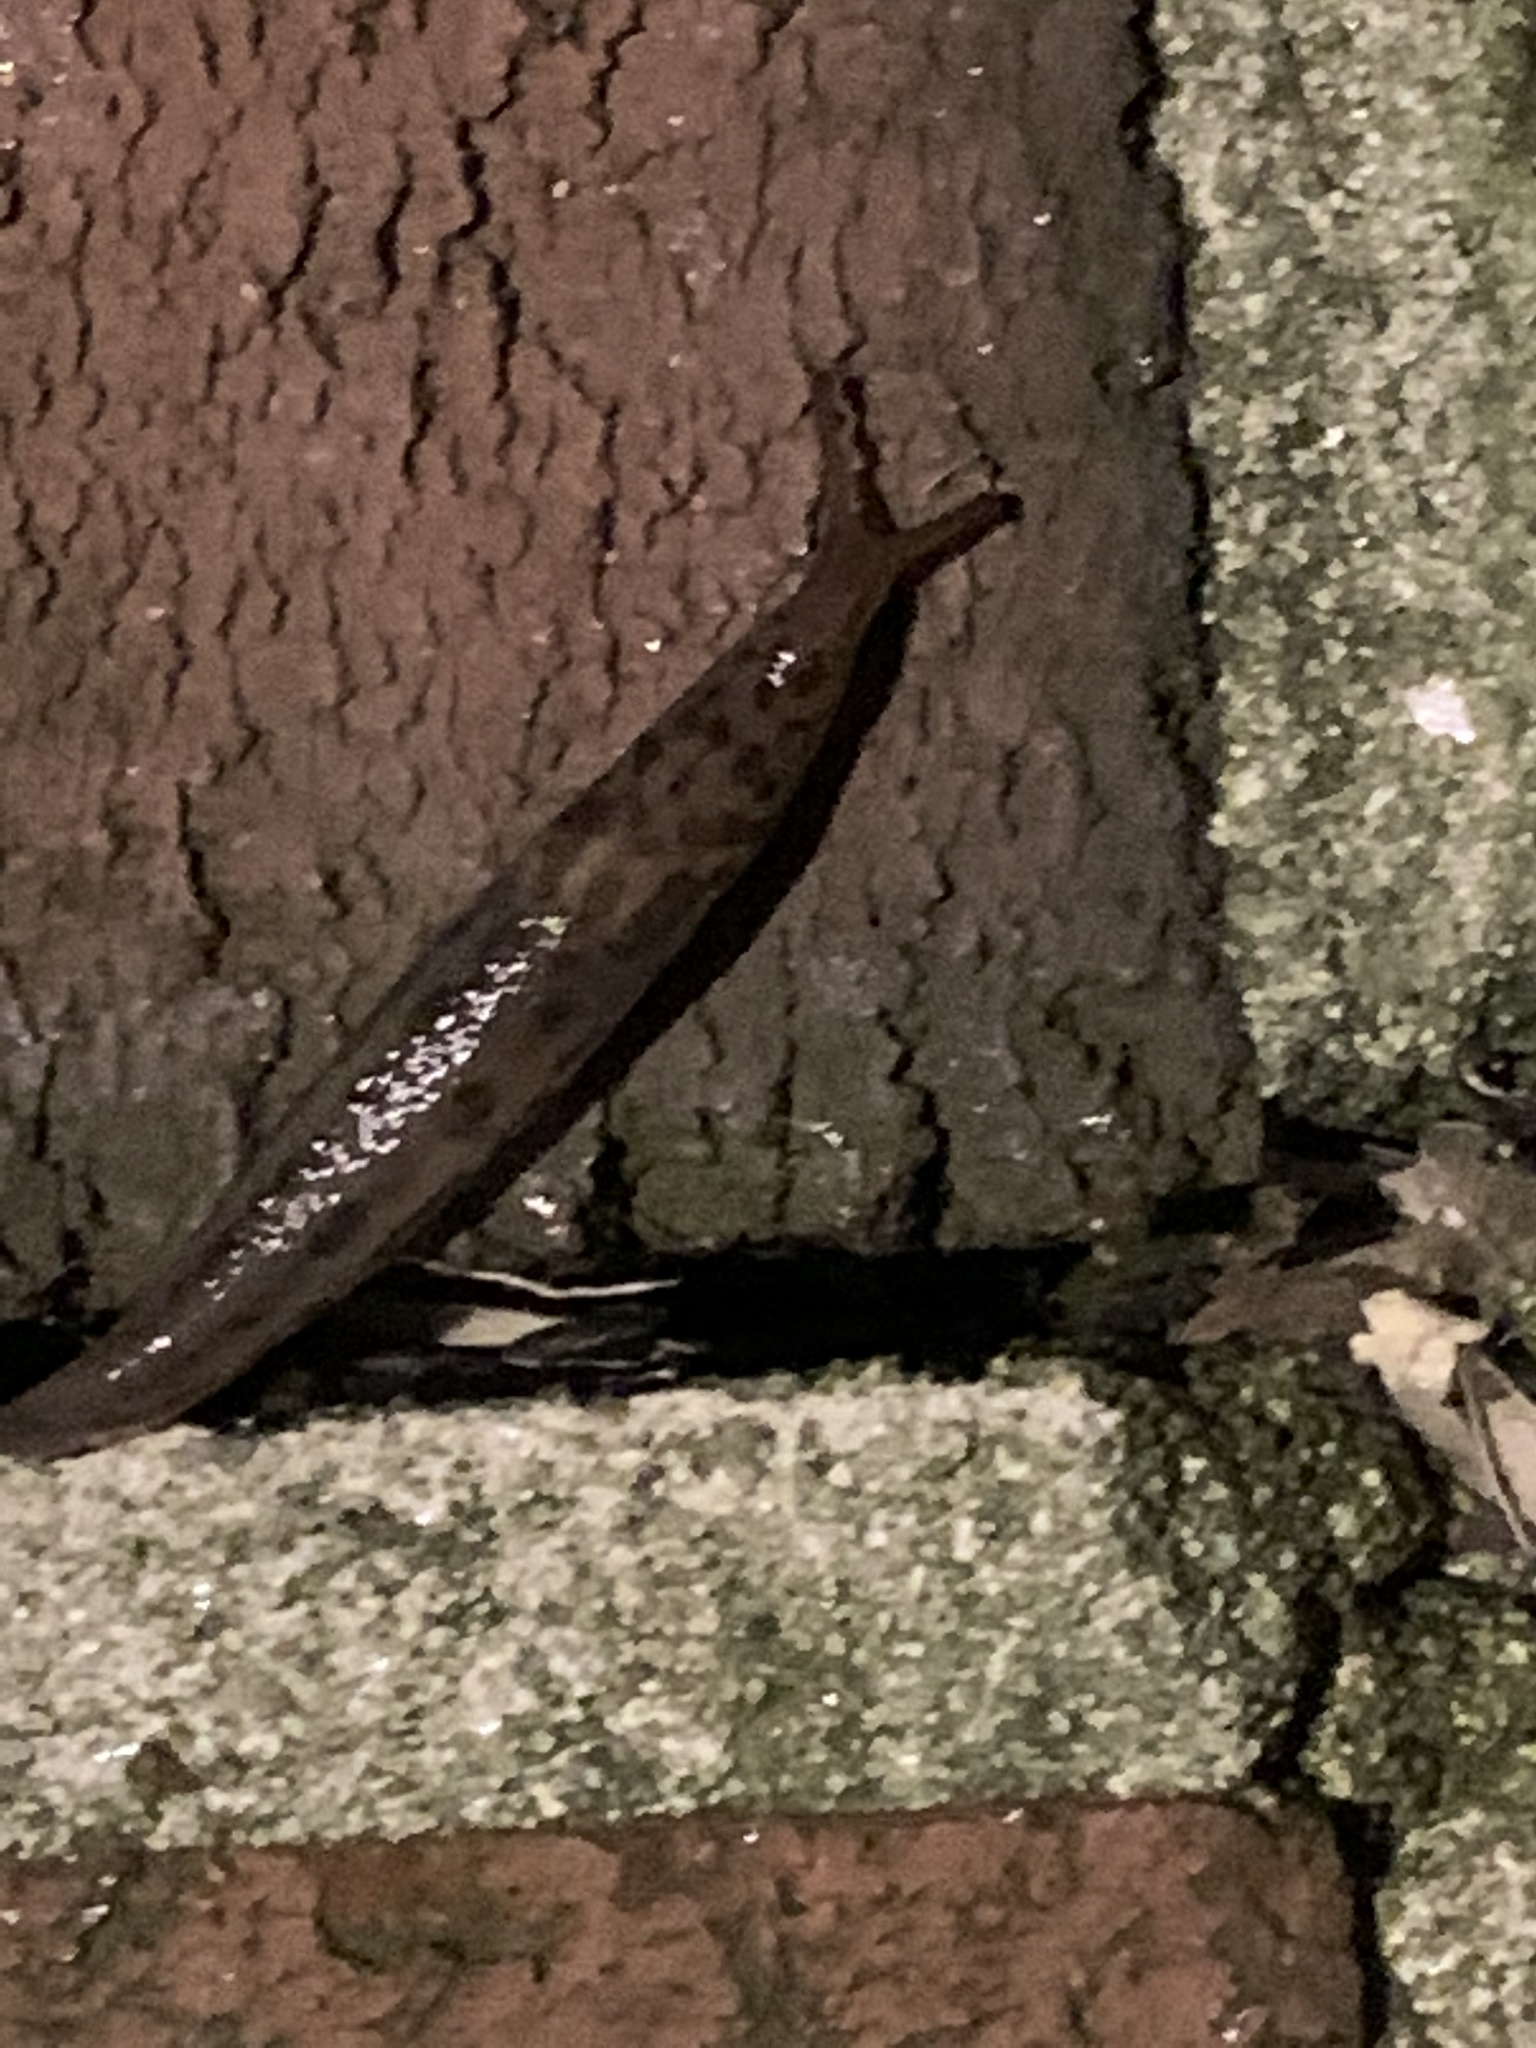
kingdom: Animalia
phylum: Mollusca
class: Gastropoda
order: Stylommatophora
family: Limacidae
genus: Limax
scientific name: Limax maximus
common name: Great grey slug
